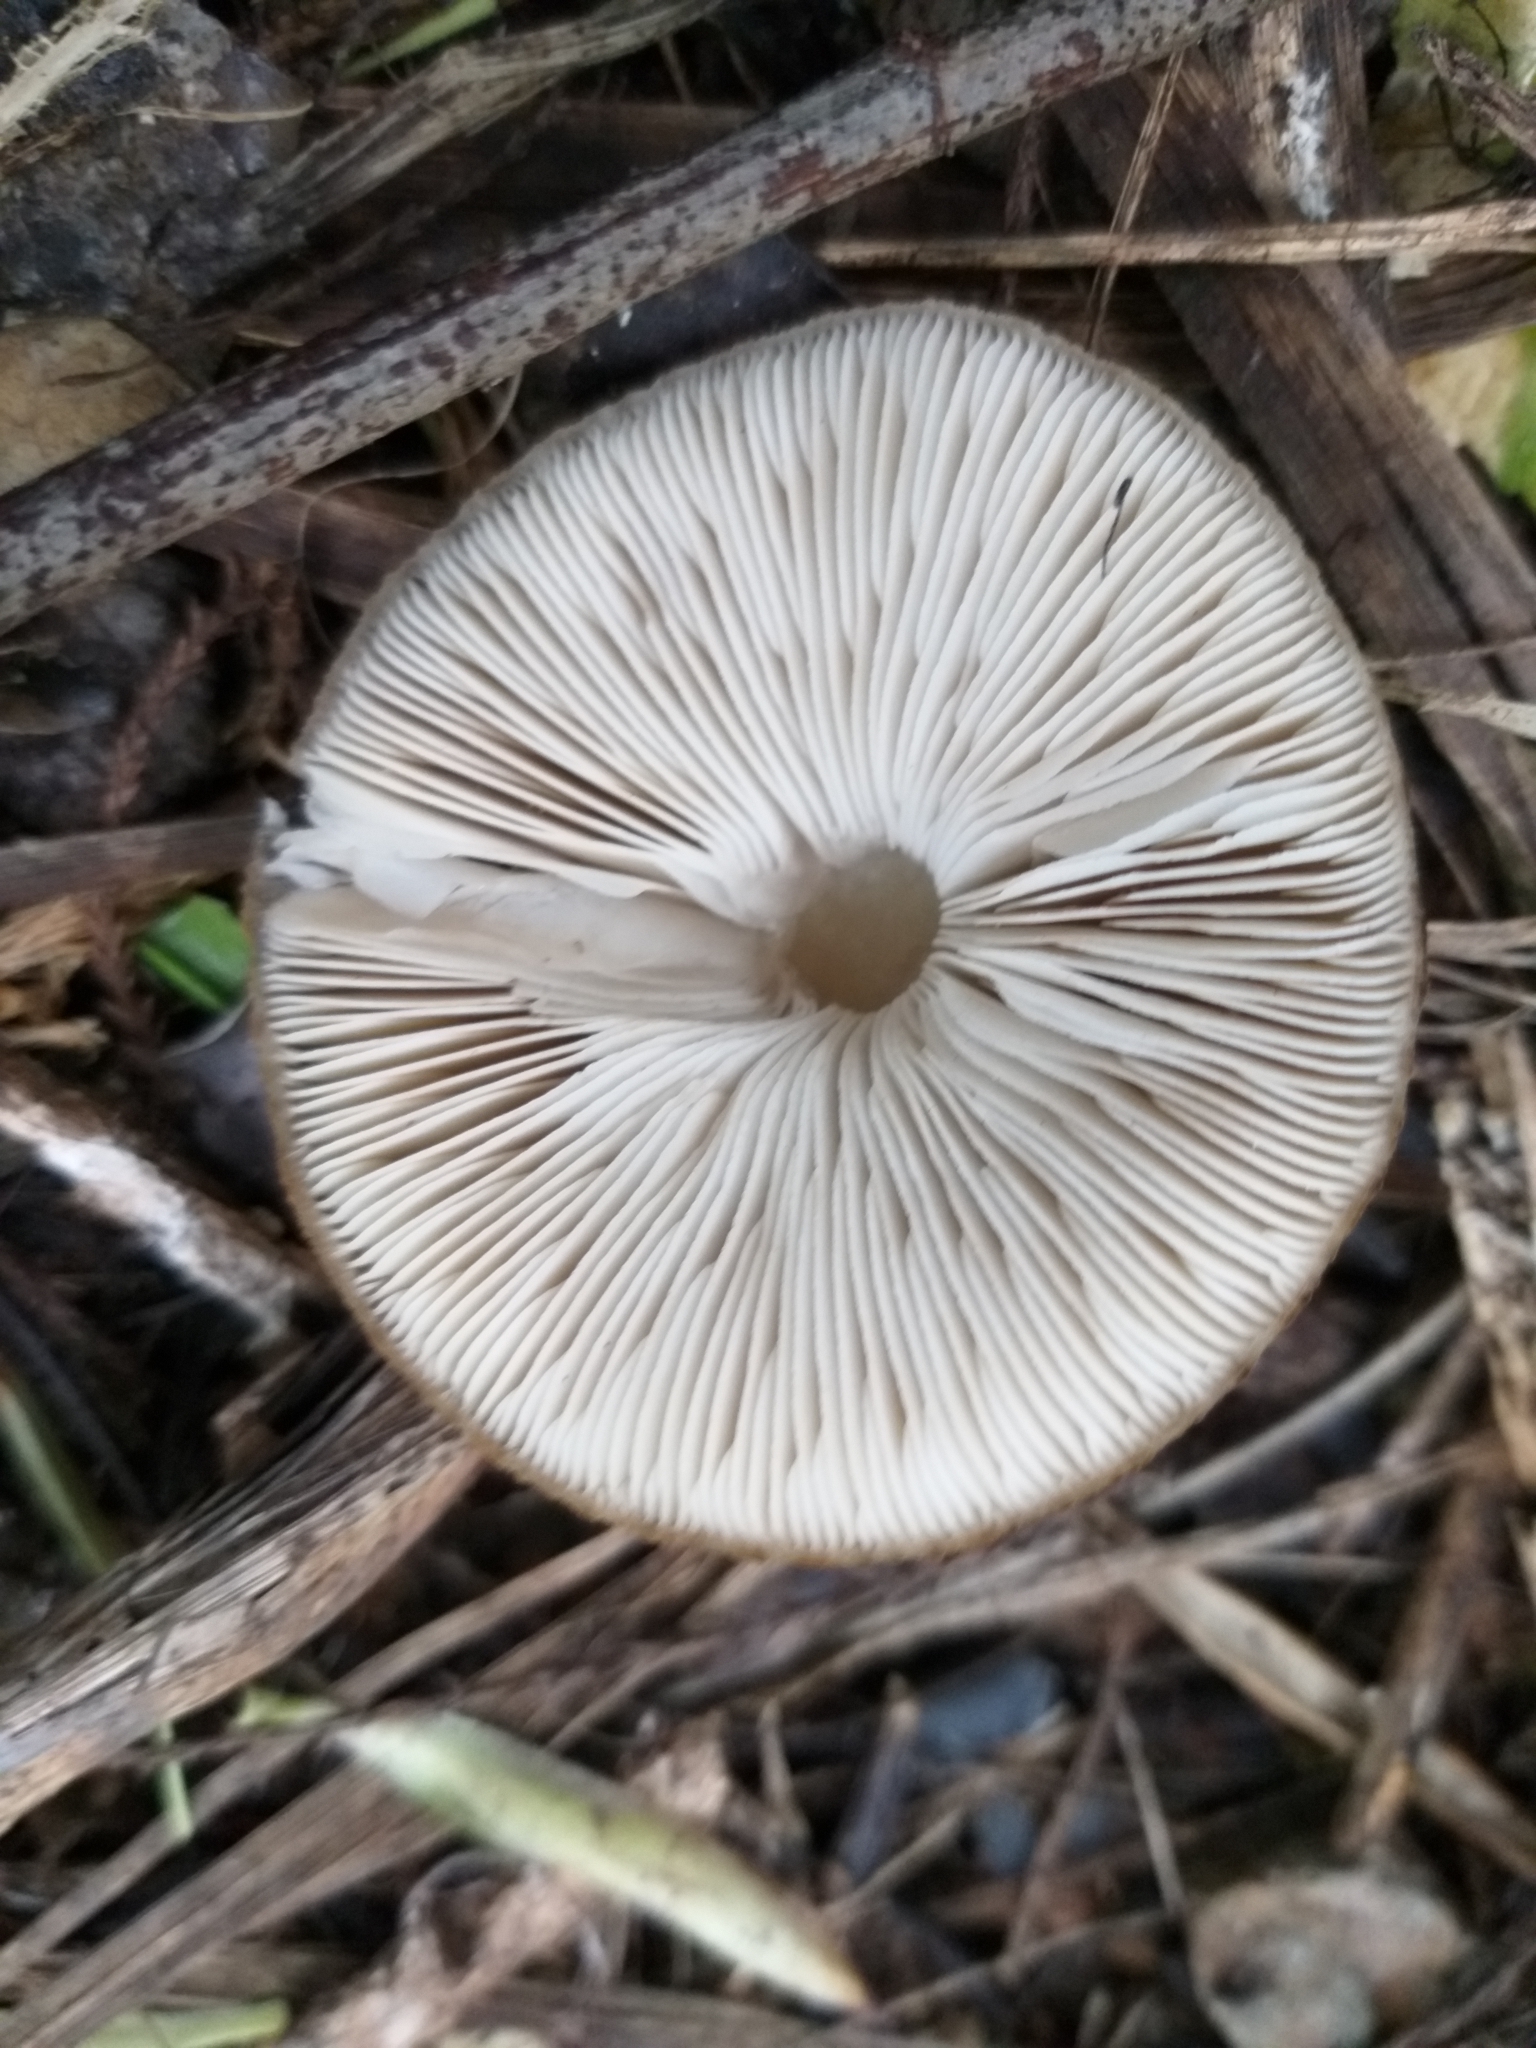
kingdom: Fungi
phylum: Basidiomycota
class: Agaricomycetes
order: Agaricales
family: Pluteaceae
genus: Pluteus
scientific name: Pluteus readiarum
